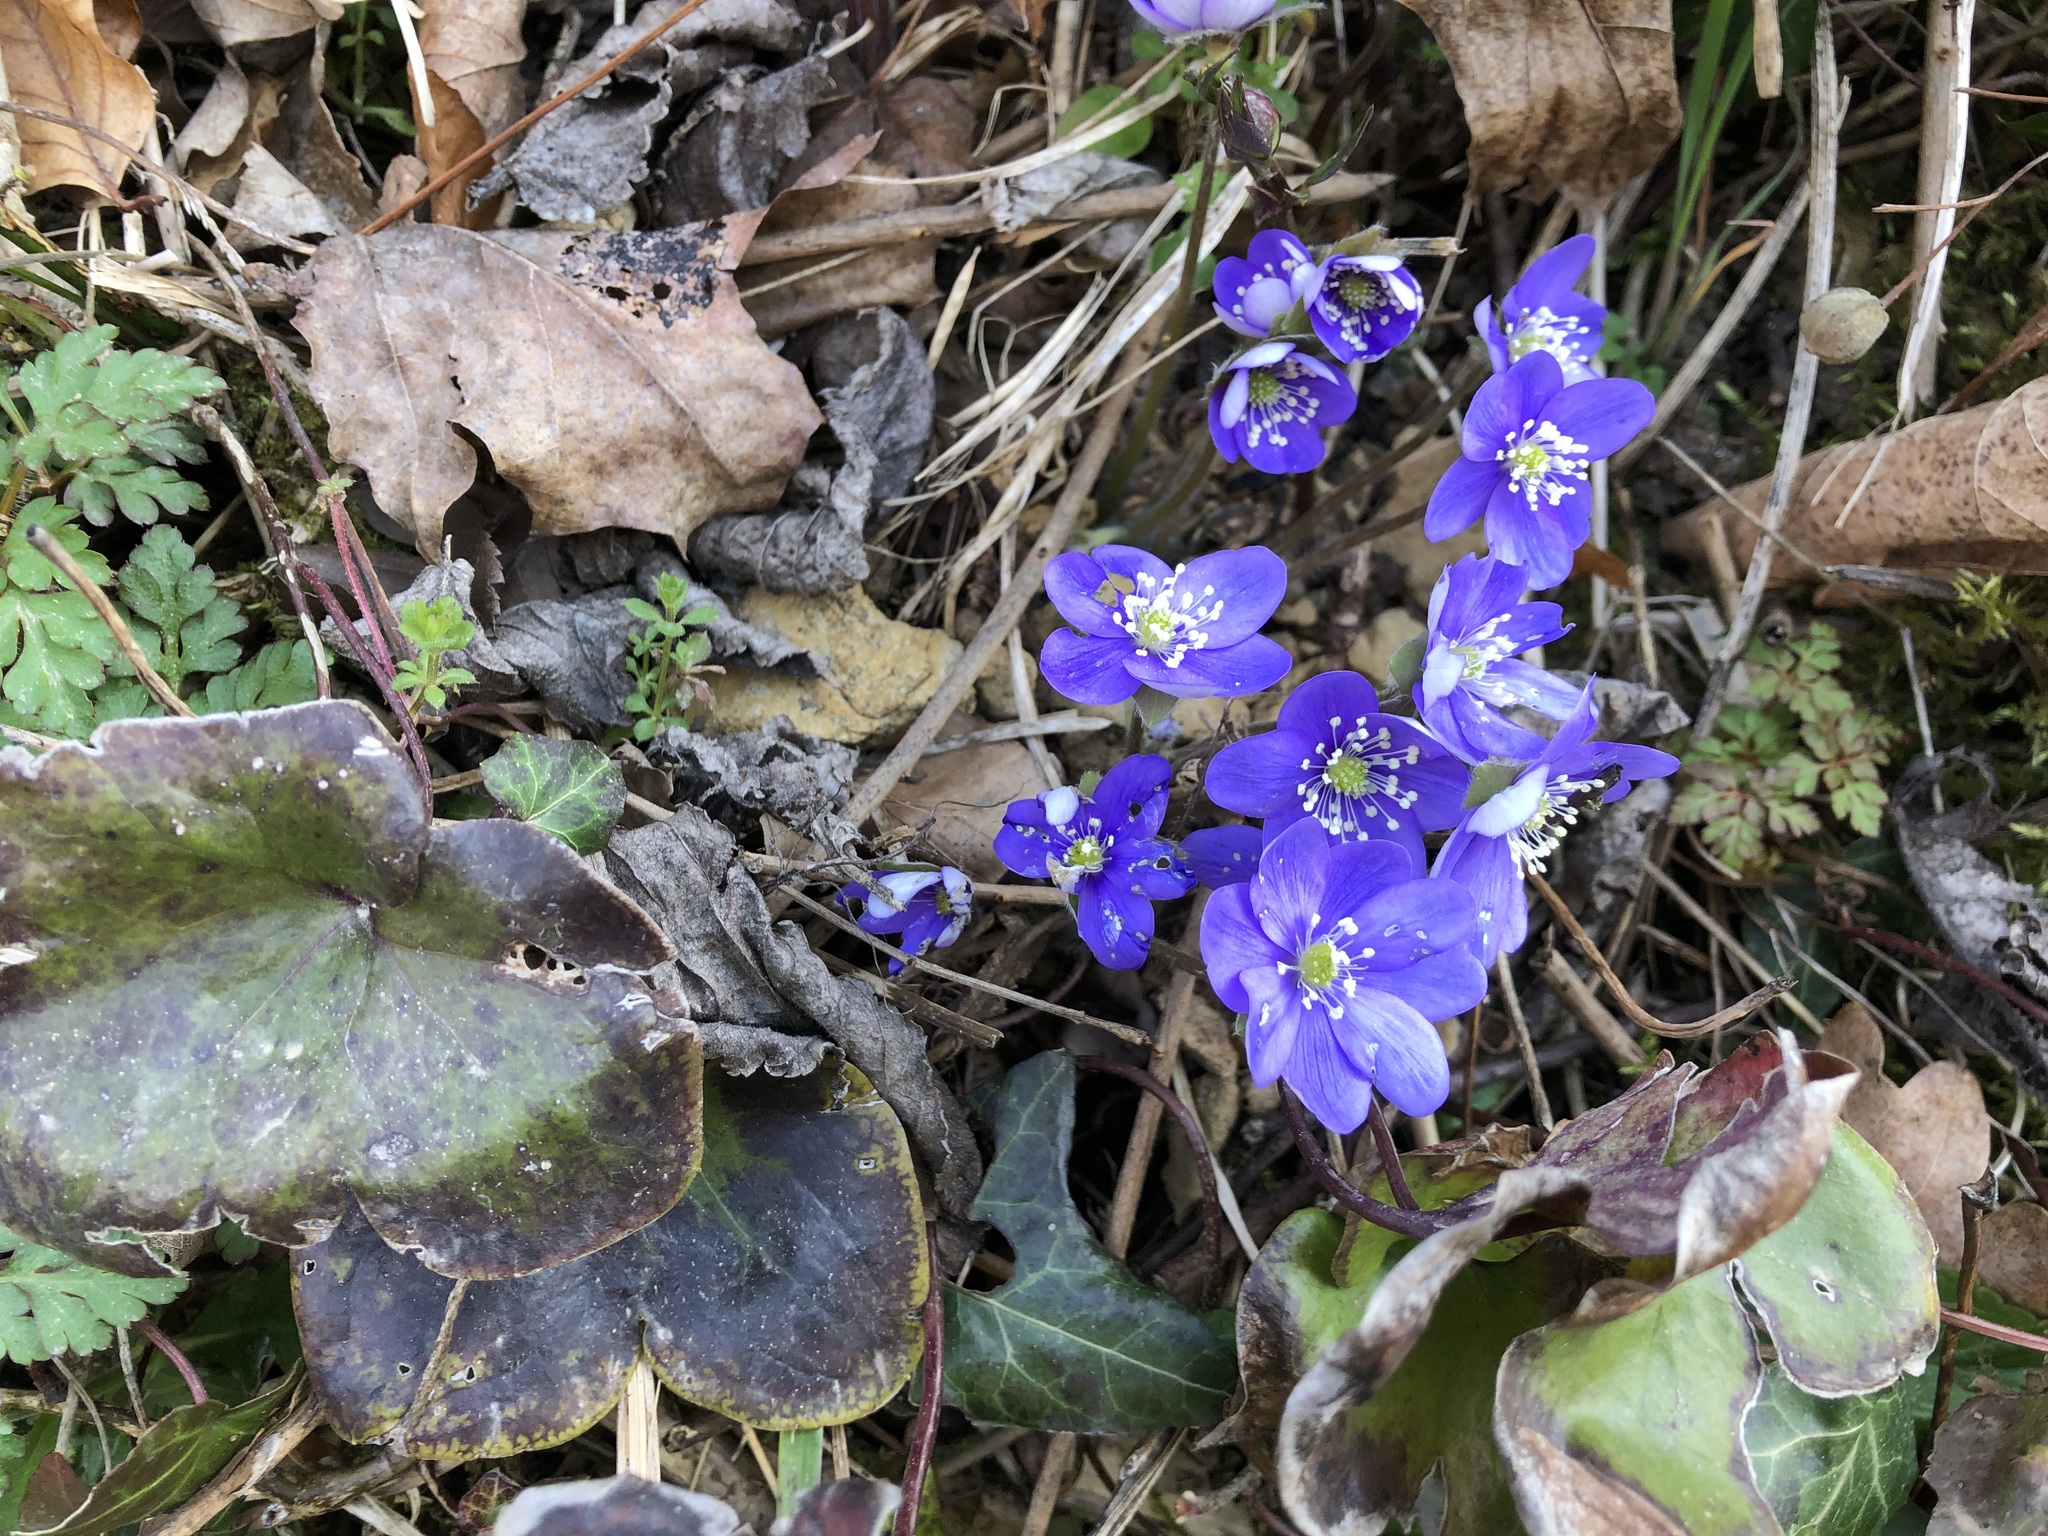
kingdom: Plantae
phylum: Tracheophyta
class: Magnoliopsida
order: Ranunculales
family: Ranunculaceae
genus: Hepatica
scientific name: Hepatica nobilis
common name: Liverleaf
